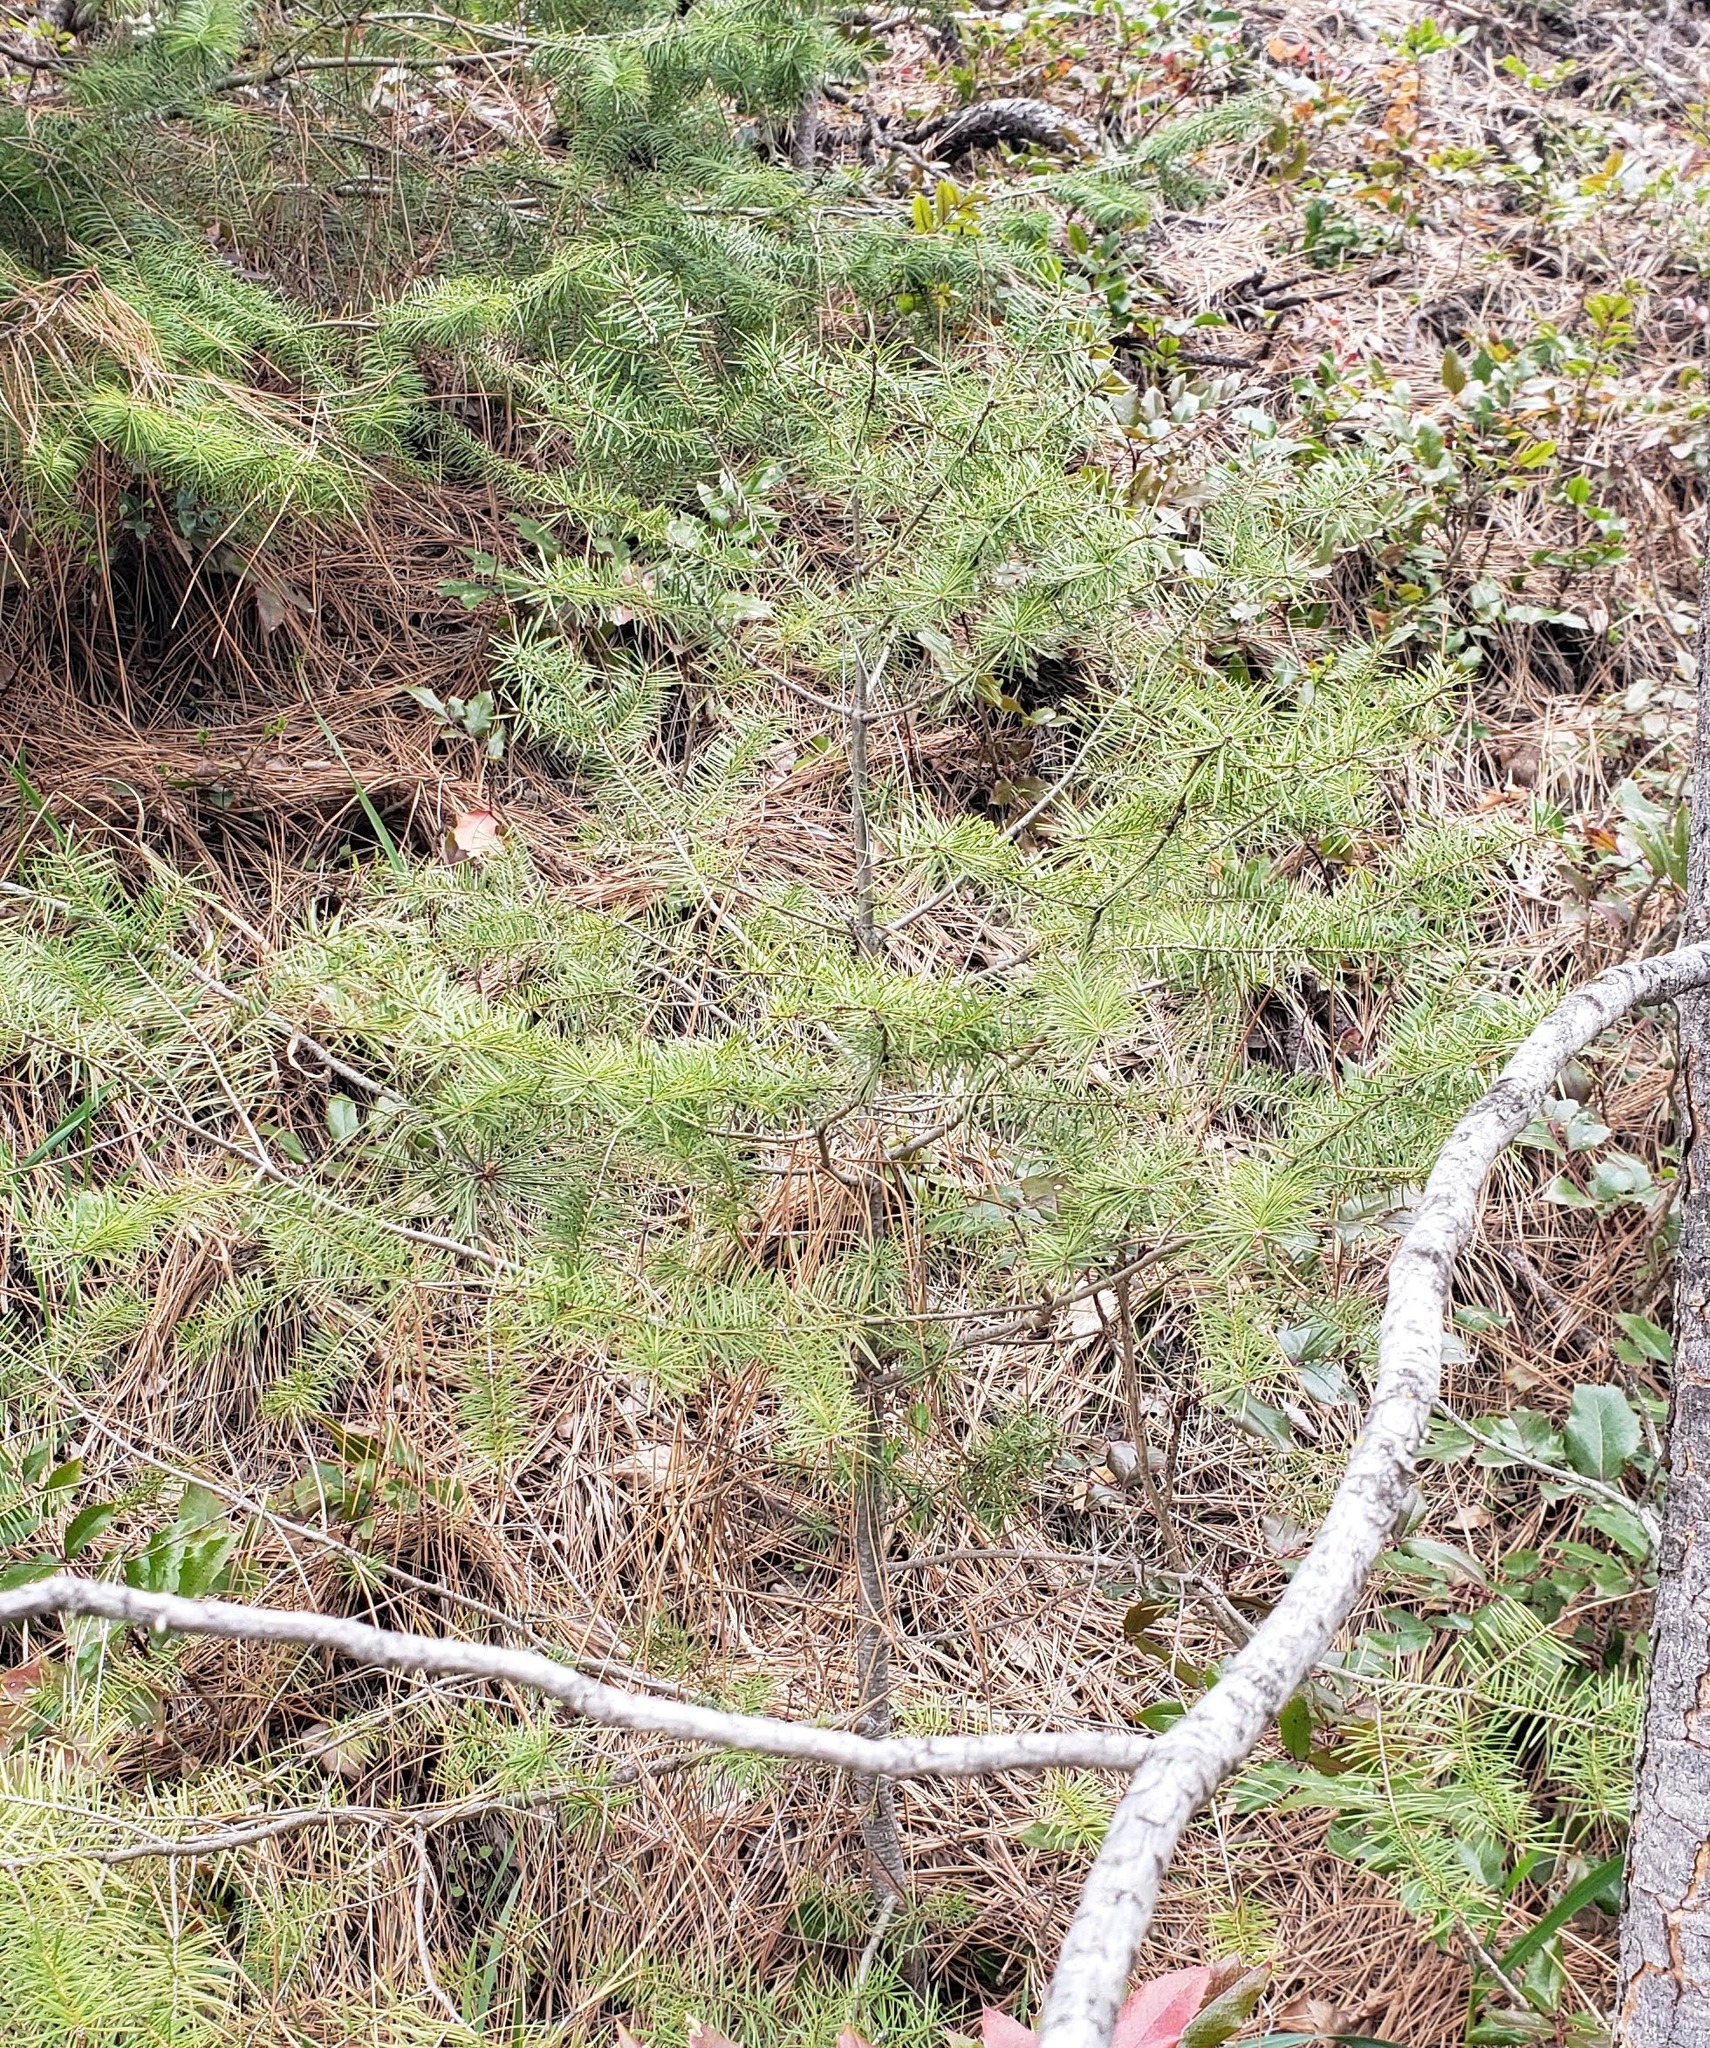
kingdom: Plantae
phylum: Tracheophyta
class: Pinopsida
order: Pinales
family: Pinaceae
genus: Pseudotsuga
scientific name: Pseudotsuga menziesii
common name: Douglas fir
